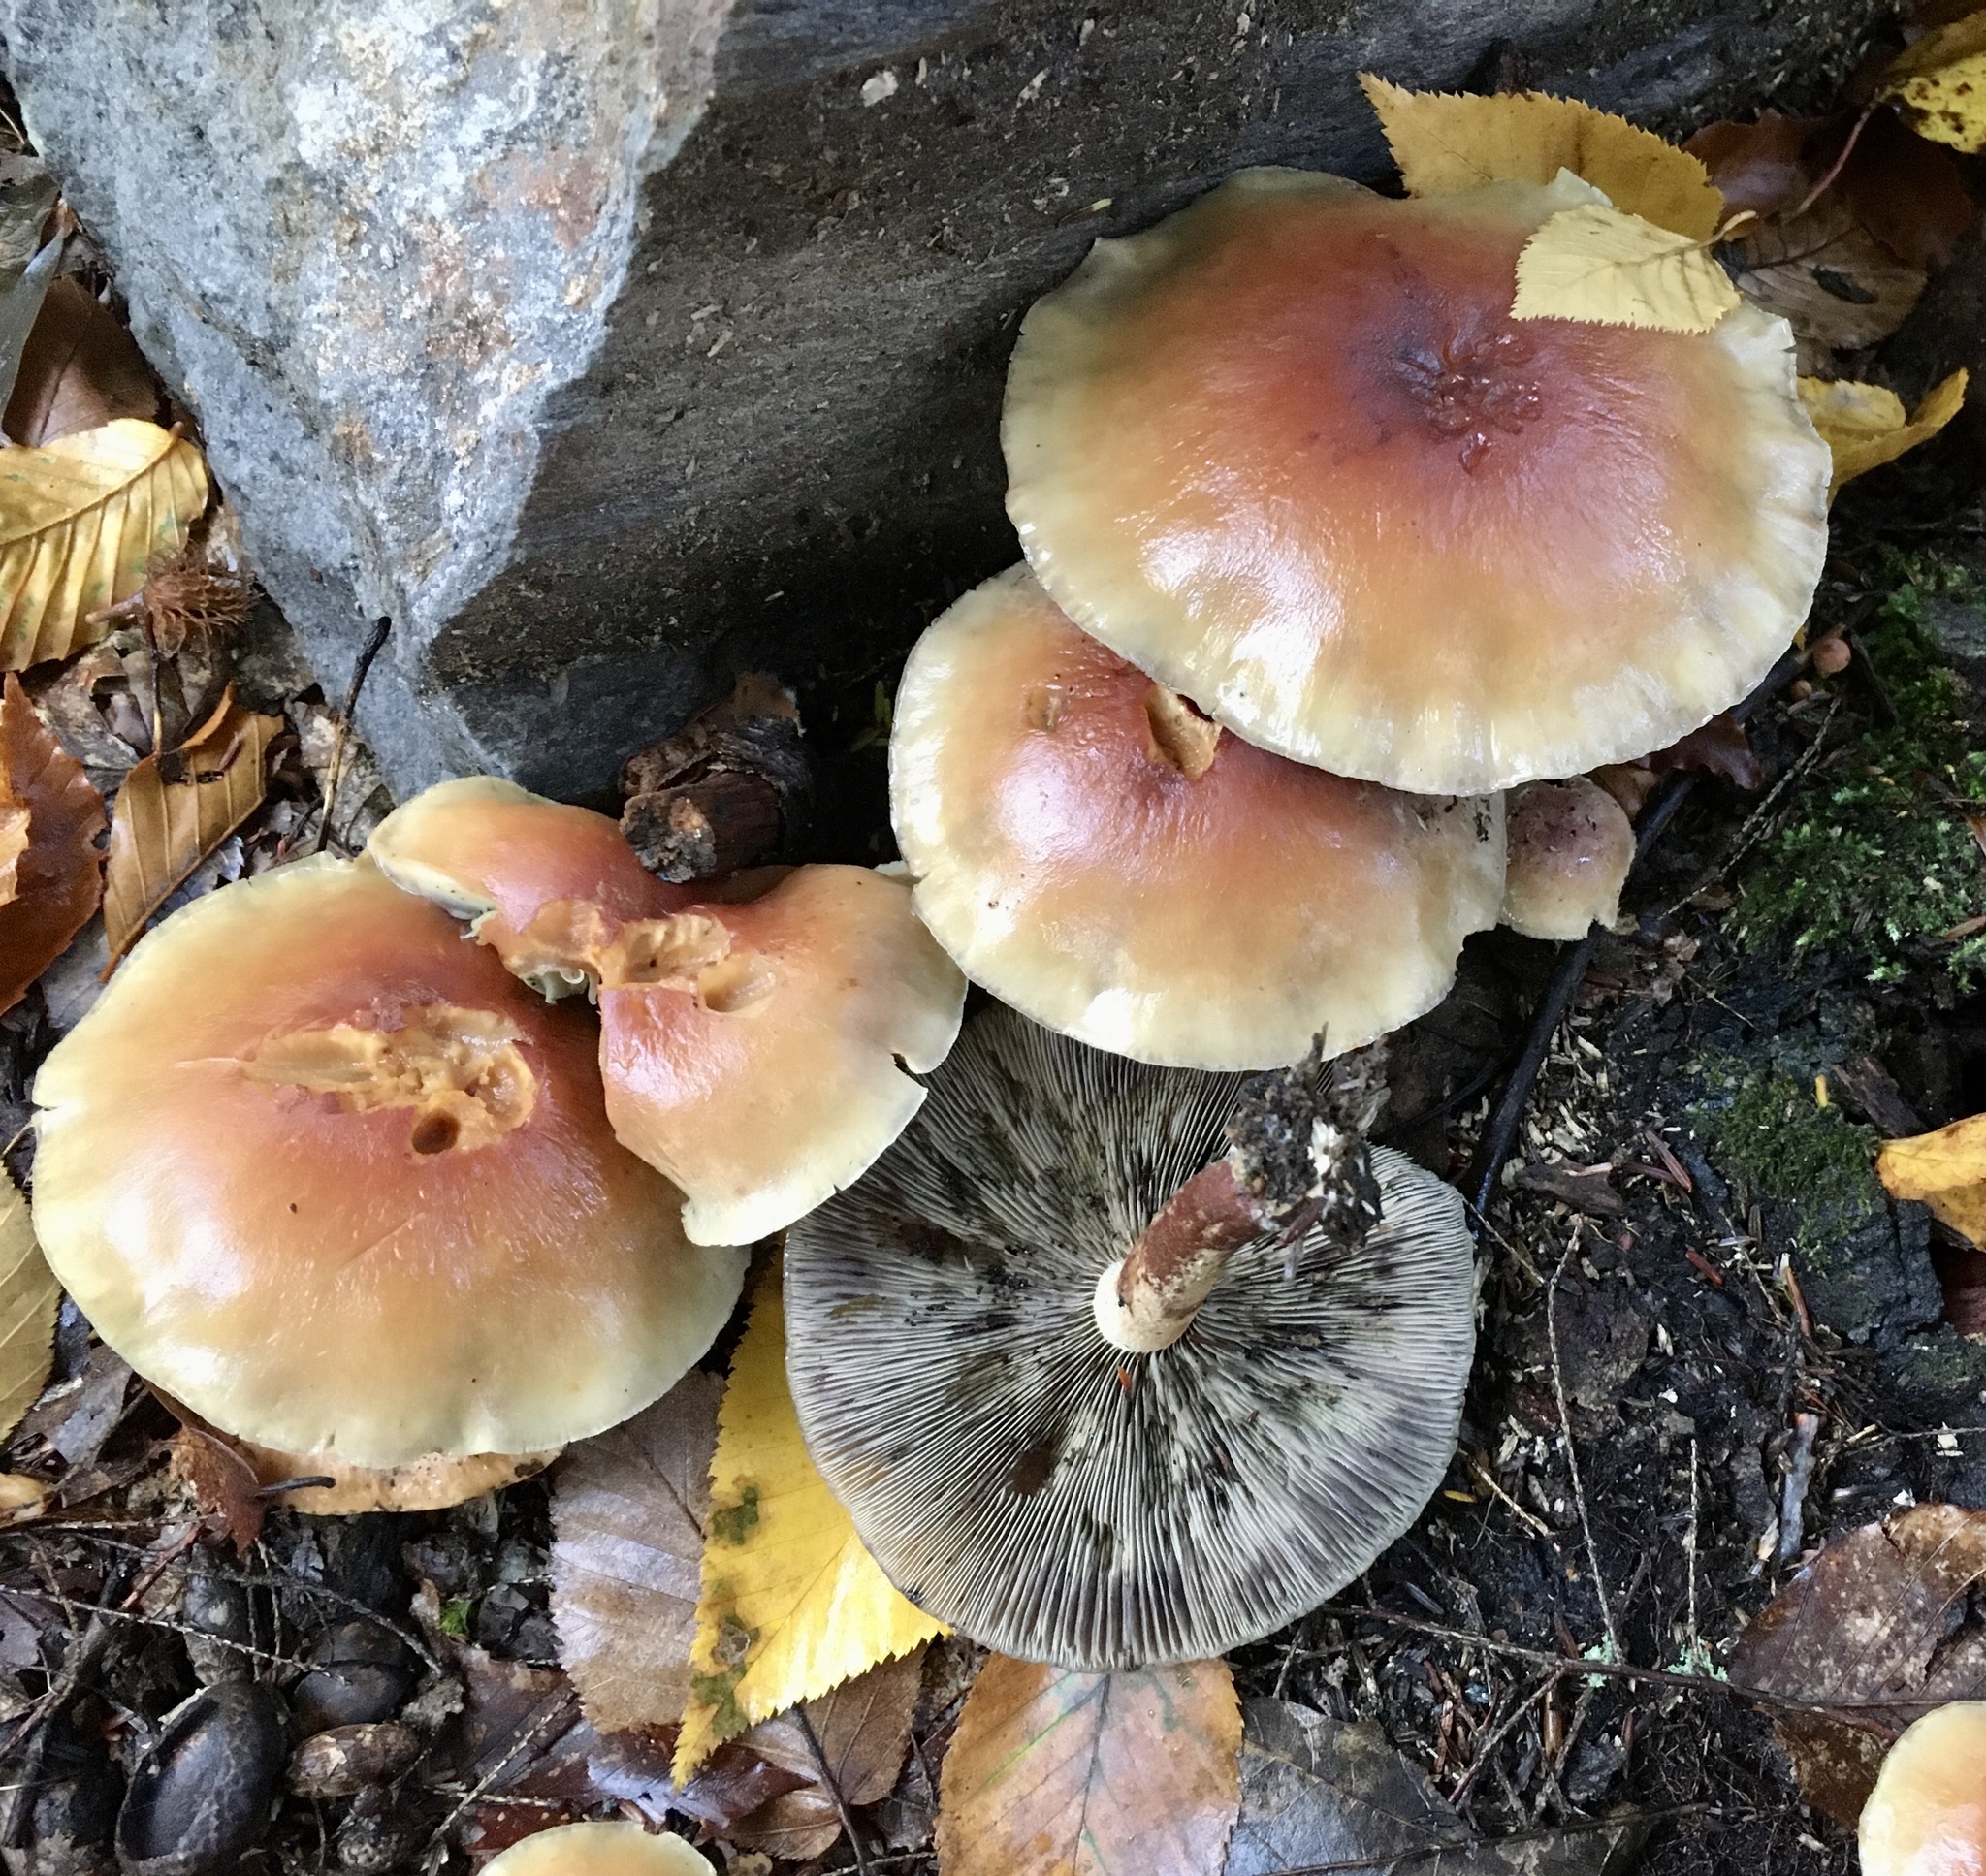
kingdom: Fungi
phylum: Basidiomycota
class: Agaricomycetes
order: Agaricales
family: Strophariaceae
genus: Hypholoma
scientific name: Hypholoma lateritium
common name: Brick caps
